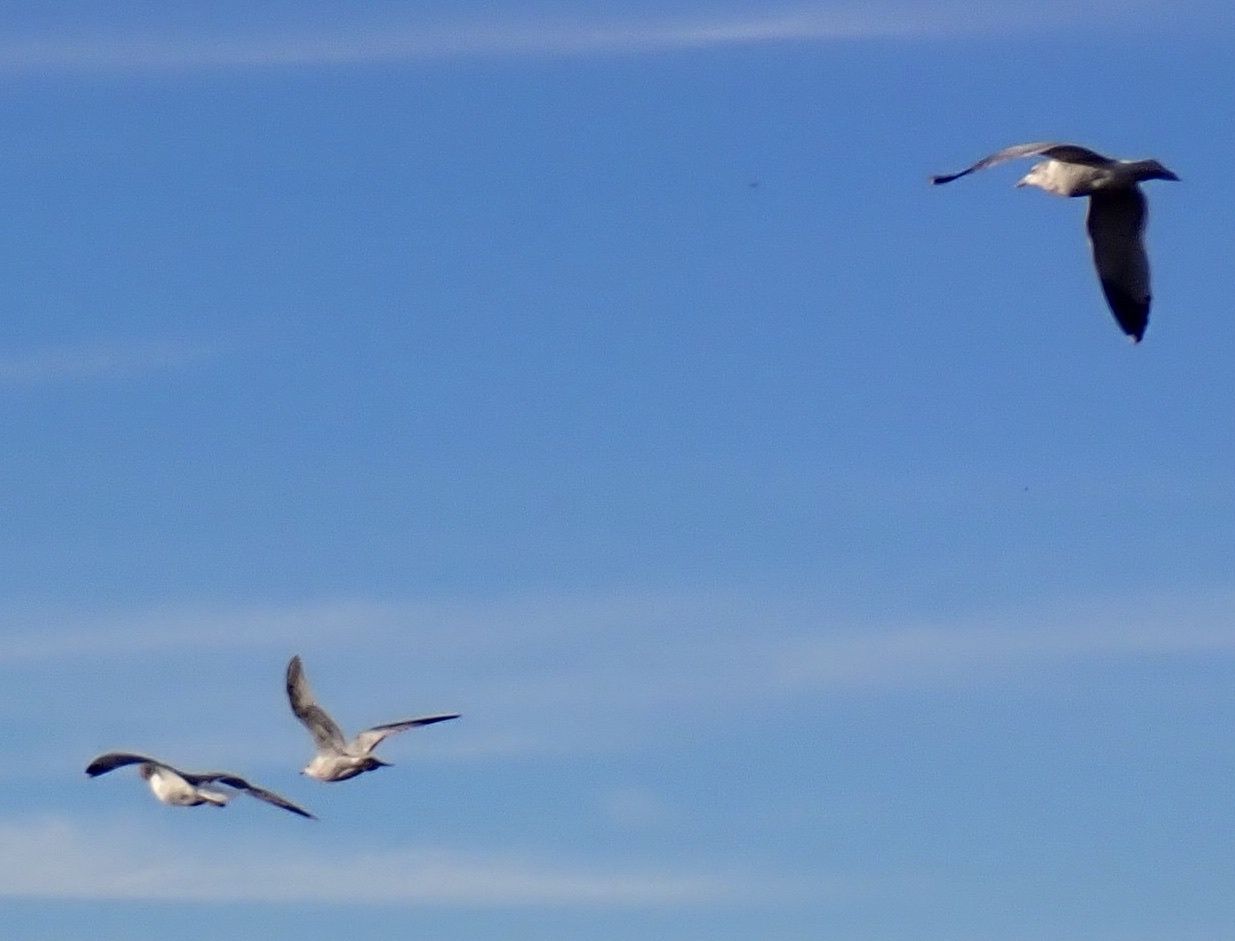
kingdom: Animalia
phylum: Chordata
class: Aves
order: Charadriiformes
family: Laridae
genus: Larus
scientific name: Larus
